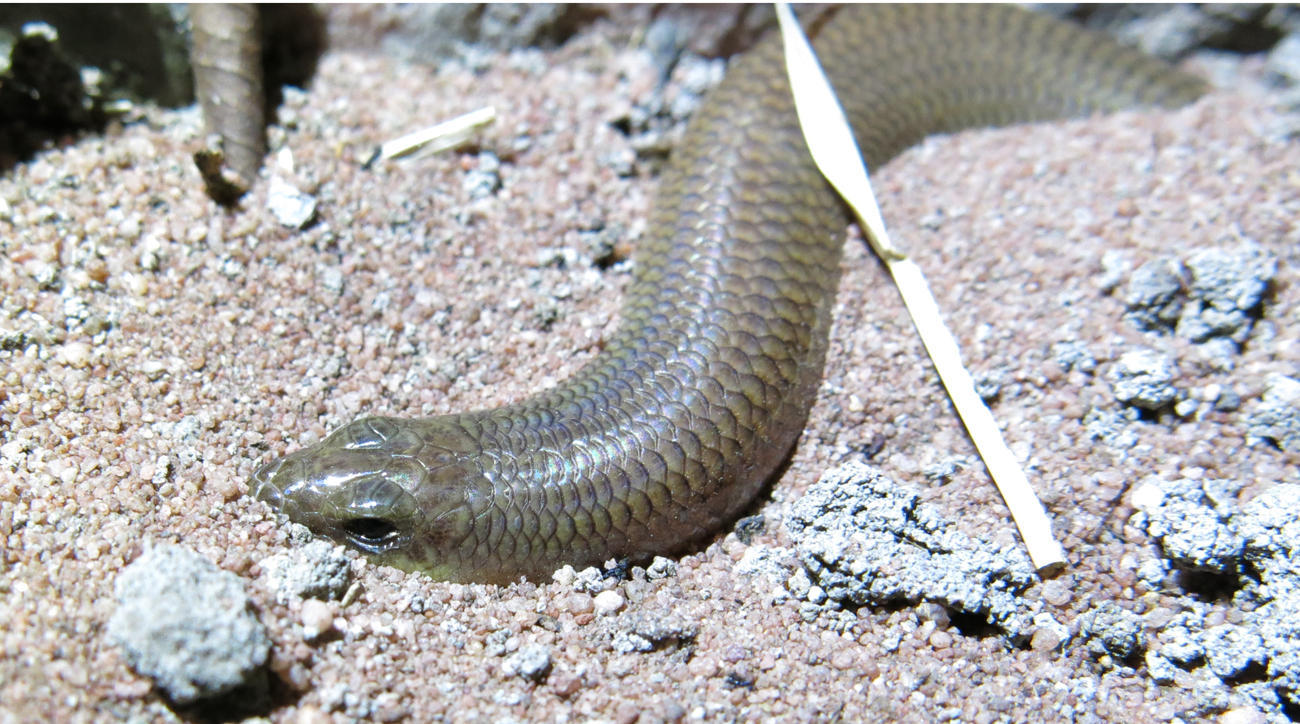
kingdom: Animalia
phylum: Chordata
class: Squamata
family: Scincidae
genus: Mochlus
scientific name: Mochlus sundevallii
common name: Peters' eyelid skink
